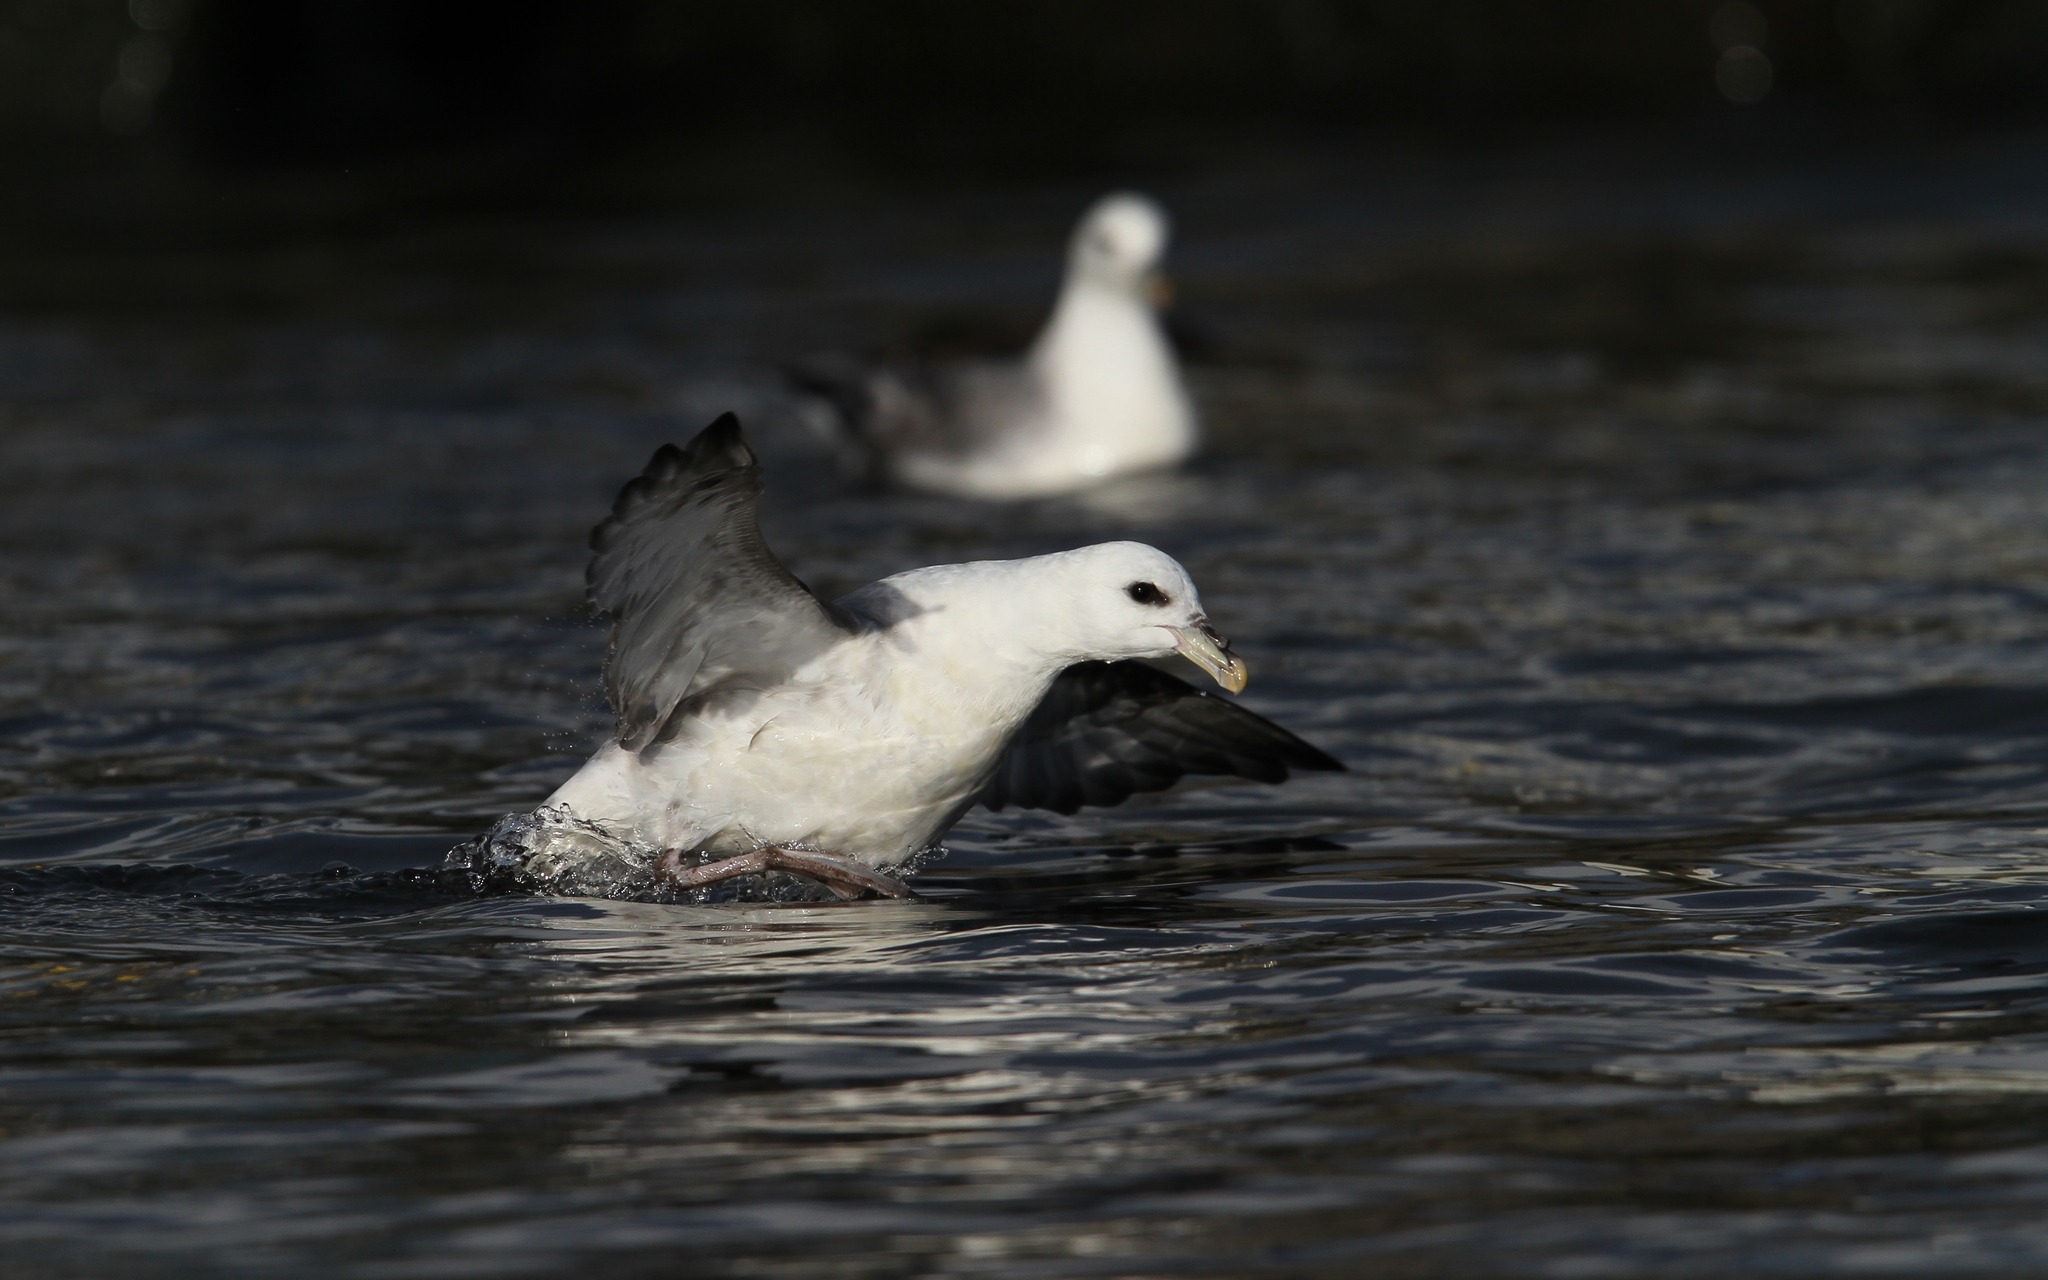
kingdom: Animalia
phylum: Chordata
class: Aves
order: Procellariiformes
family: Procellariidae
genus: Fulmarus
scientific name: Fulmarus glacialis
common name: Northern fulmar
